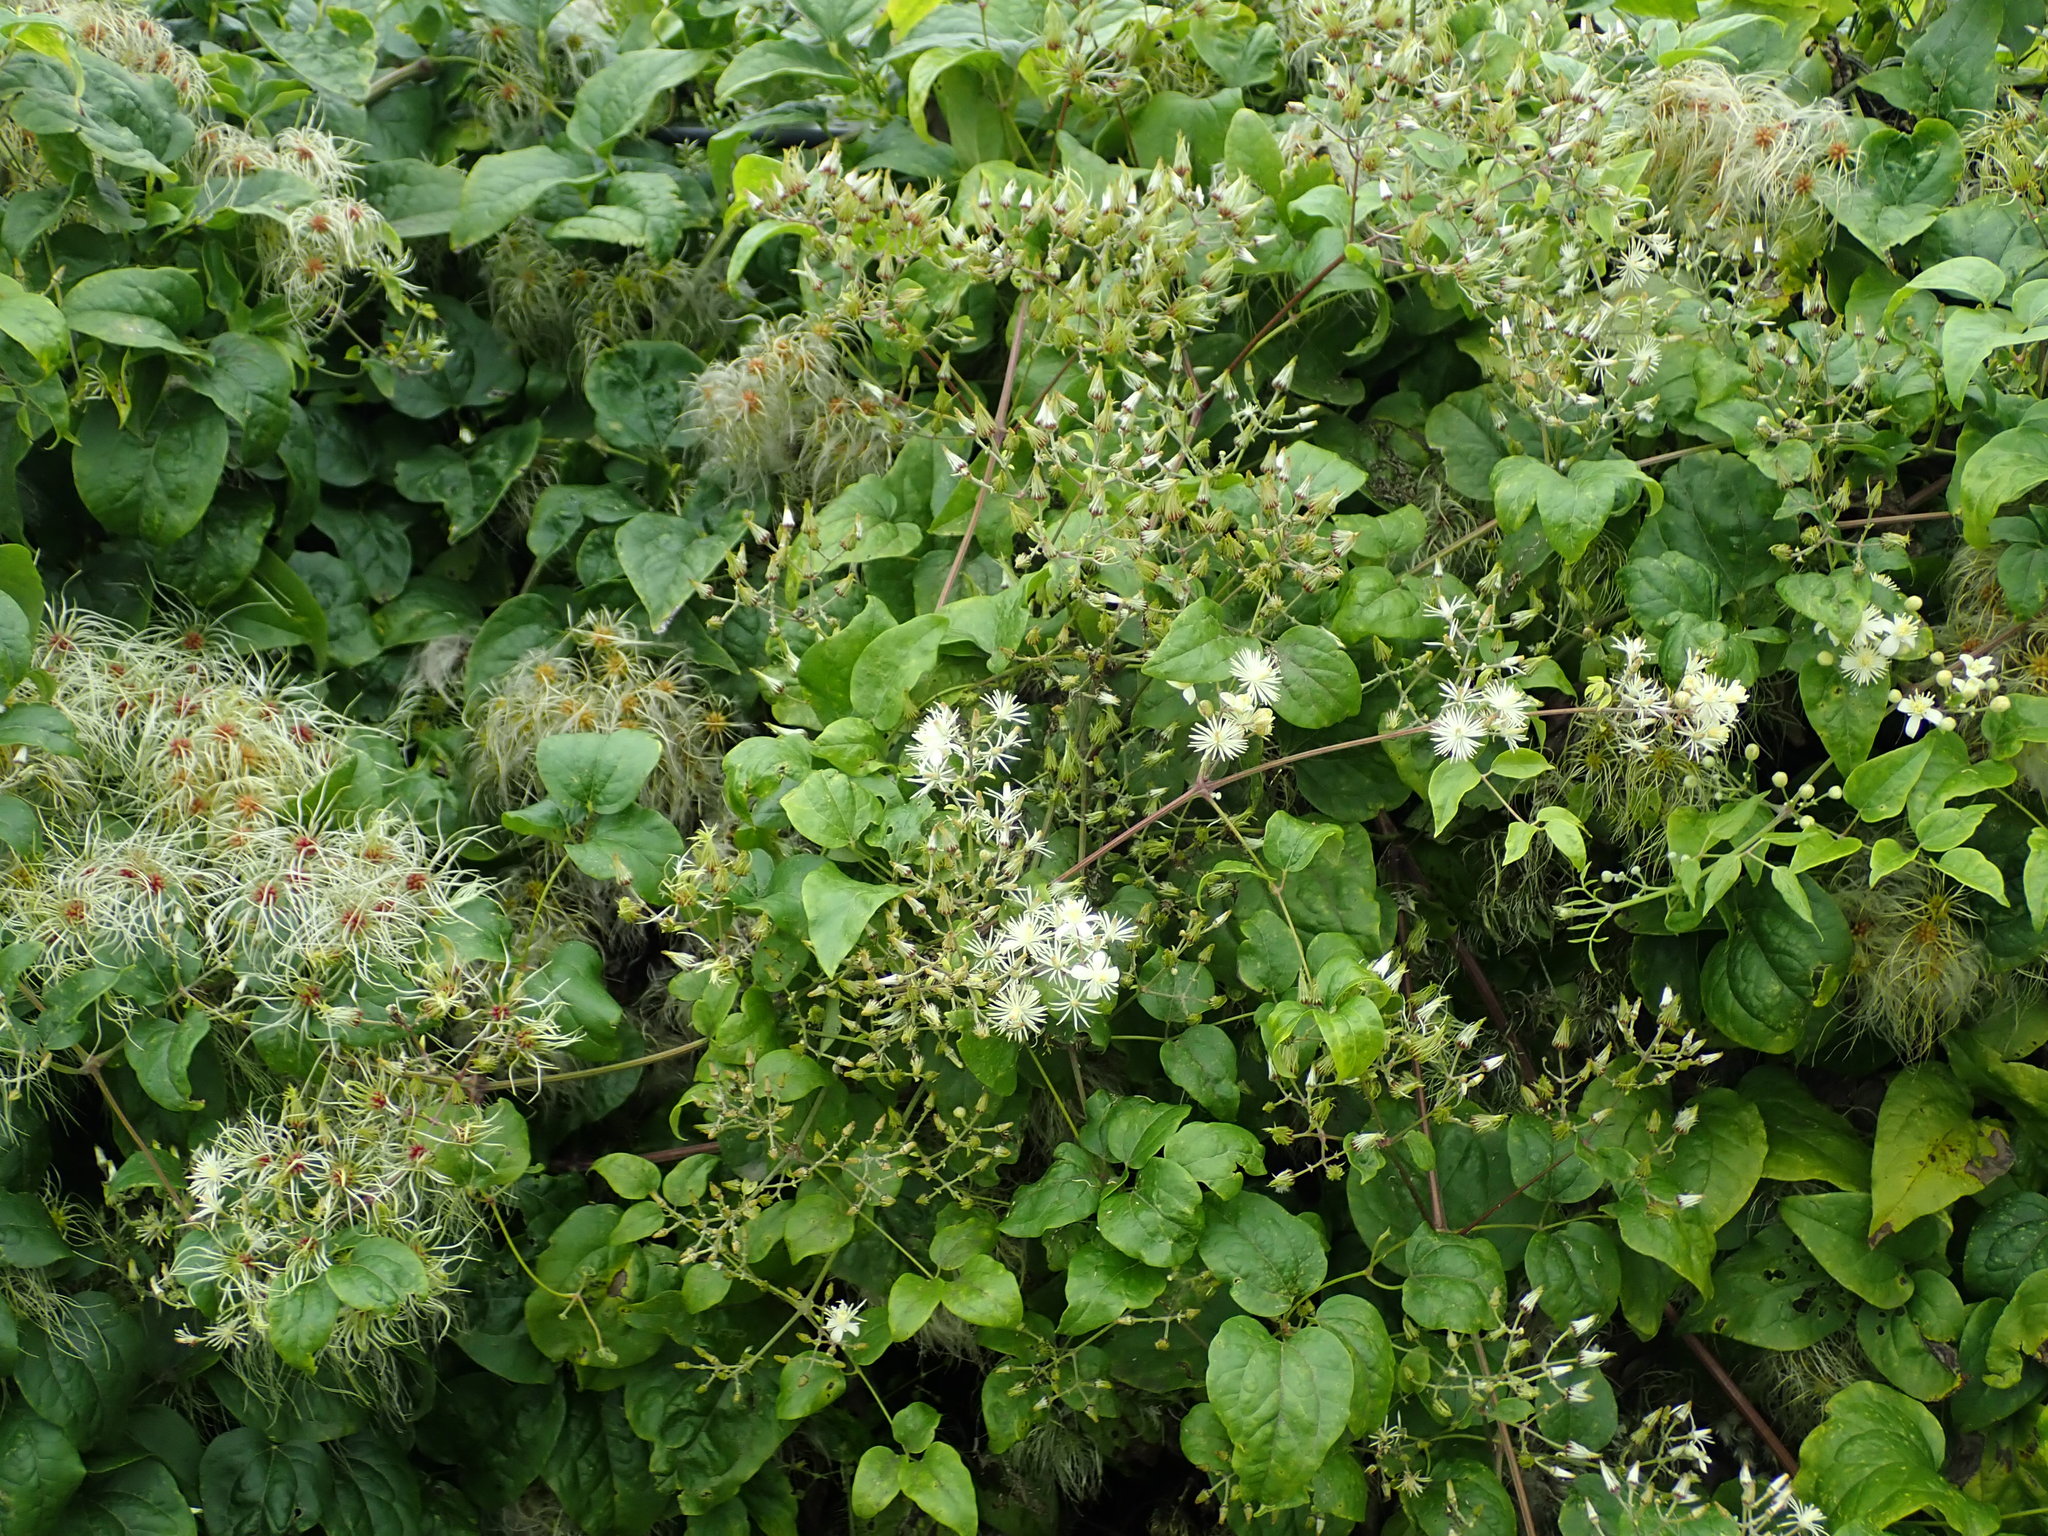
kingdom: Plantae
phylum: Tracheophyta
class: Magnoliopsida
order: Ranunculales
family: Ranunculaceae
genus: Clematis
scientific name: Clematis vitalba
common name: Evergreen clematis
